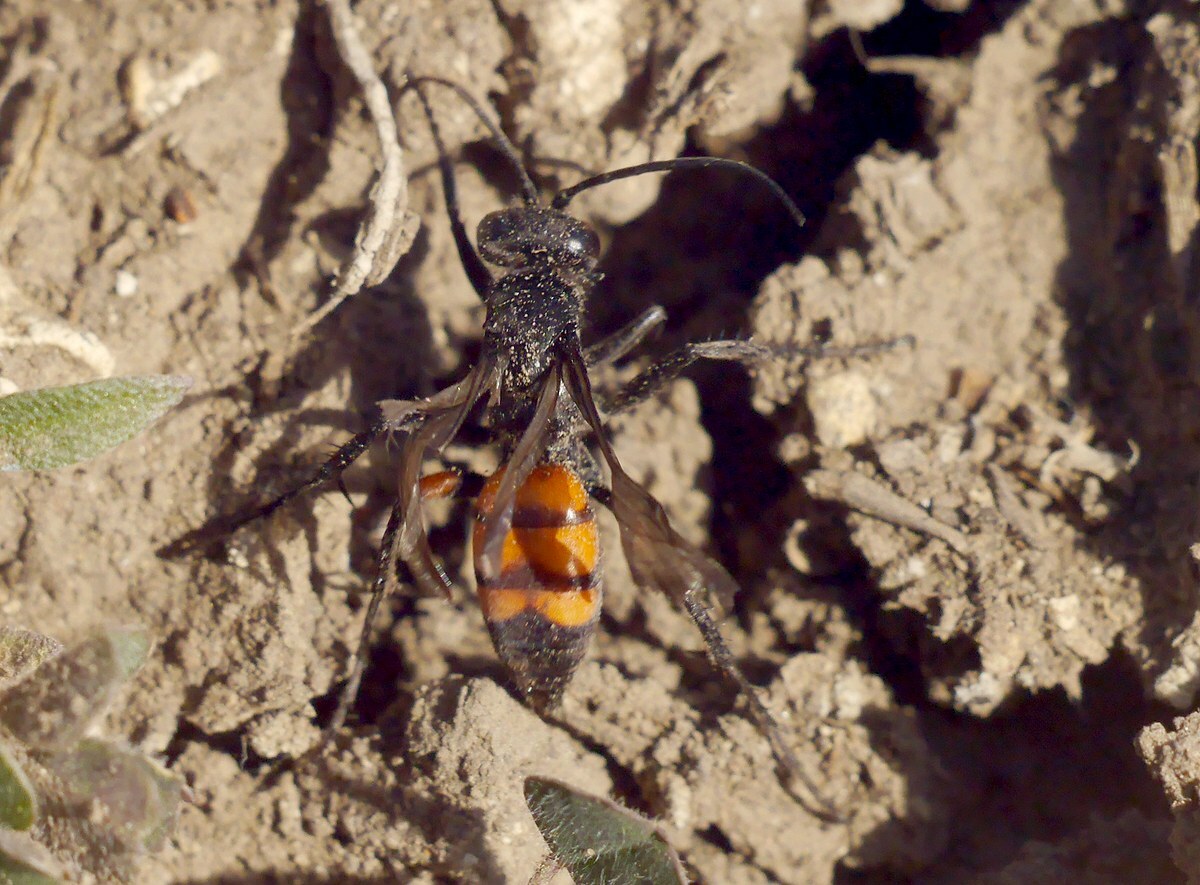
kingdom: Animalia
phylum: Arthropoda
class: Insecta
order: Hymenoptera
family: Pompilidae
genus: Anoplius
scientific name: Anoplius viaticus
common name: Black banded spider wasp
